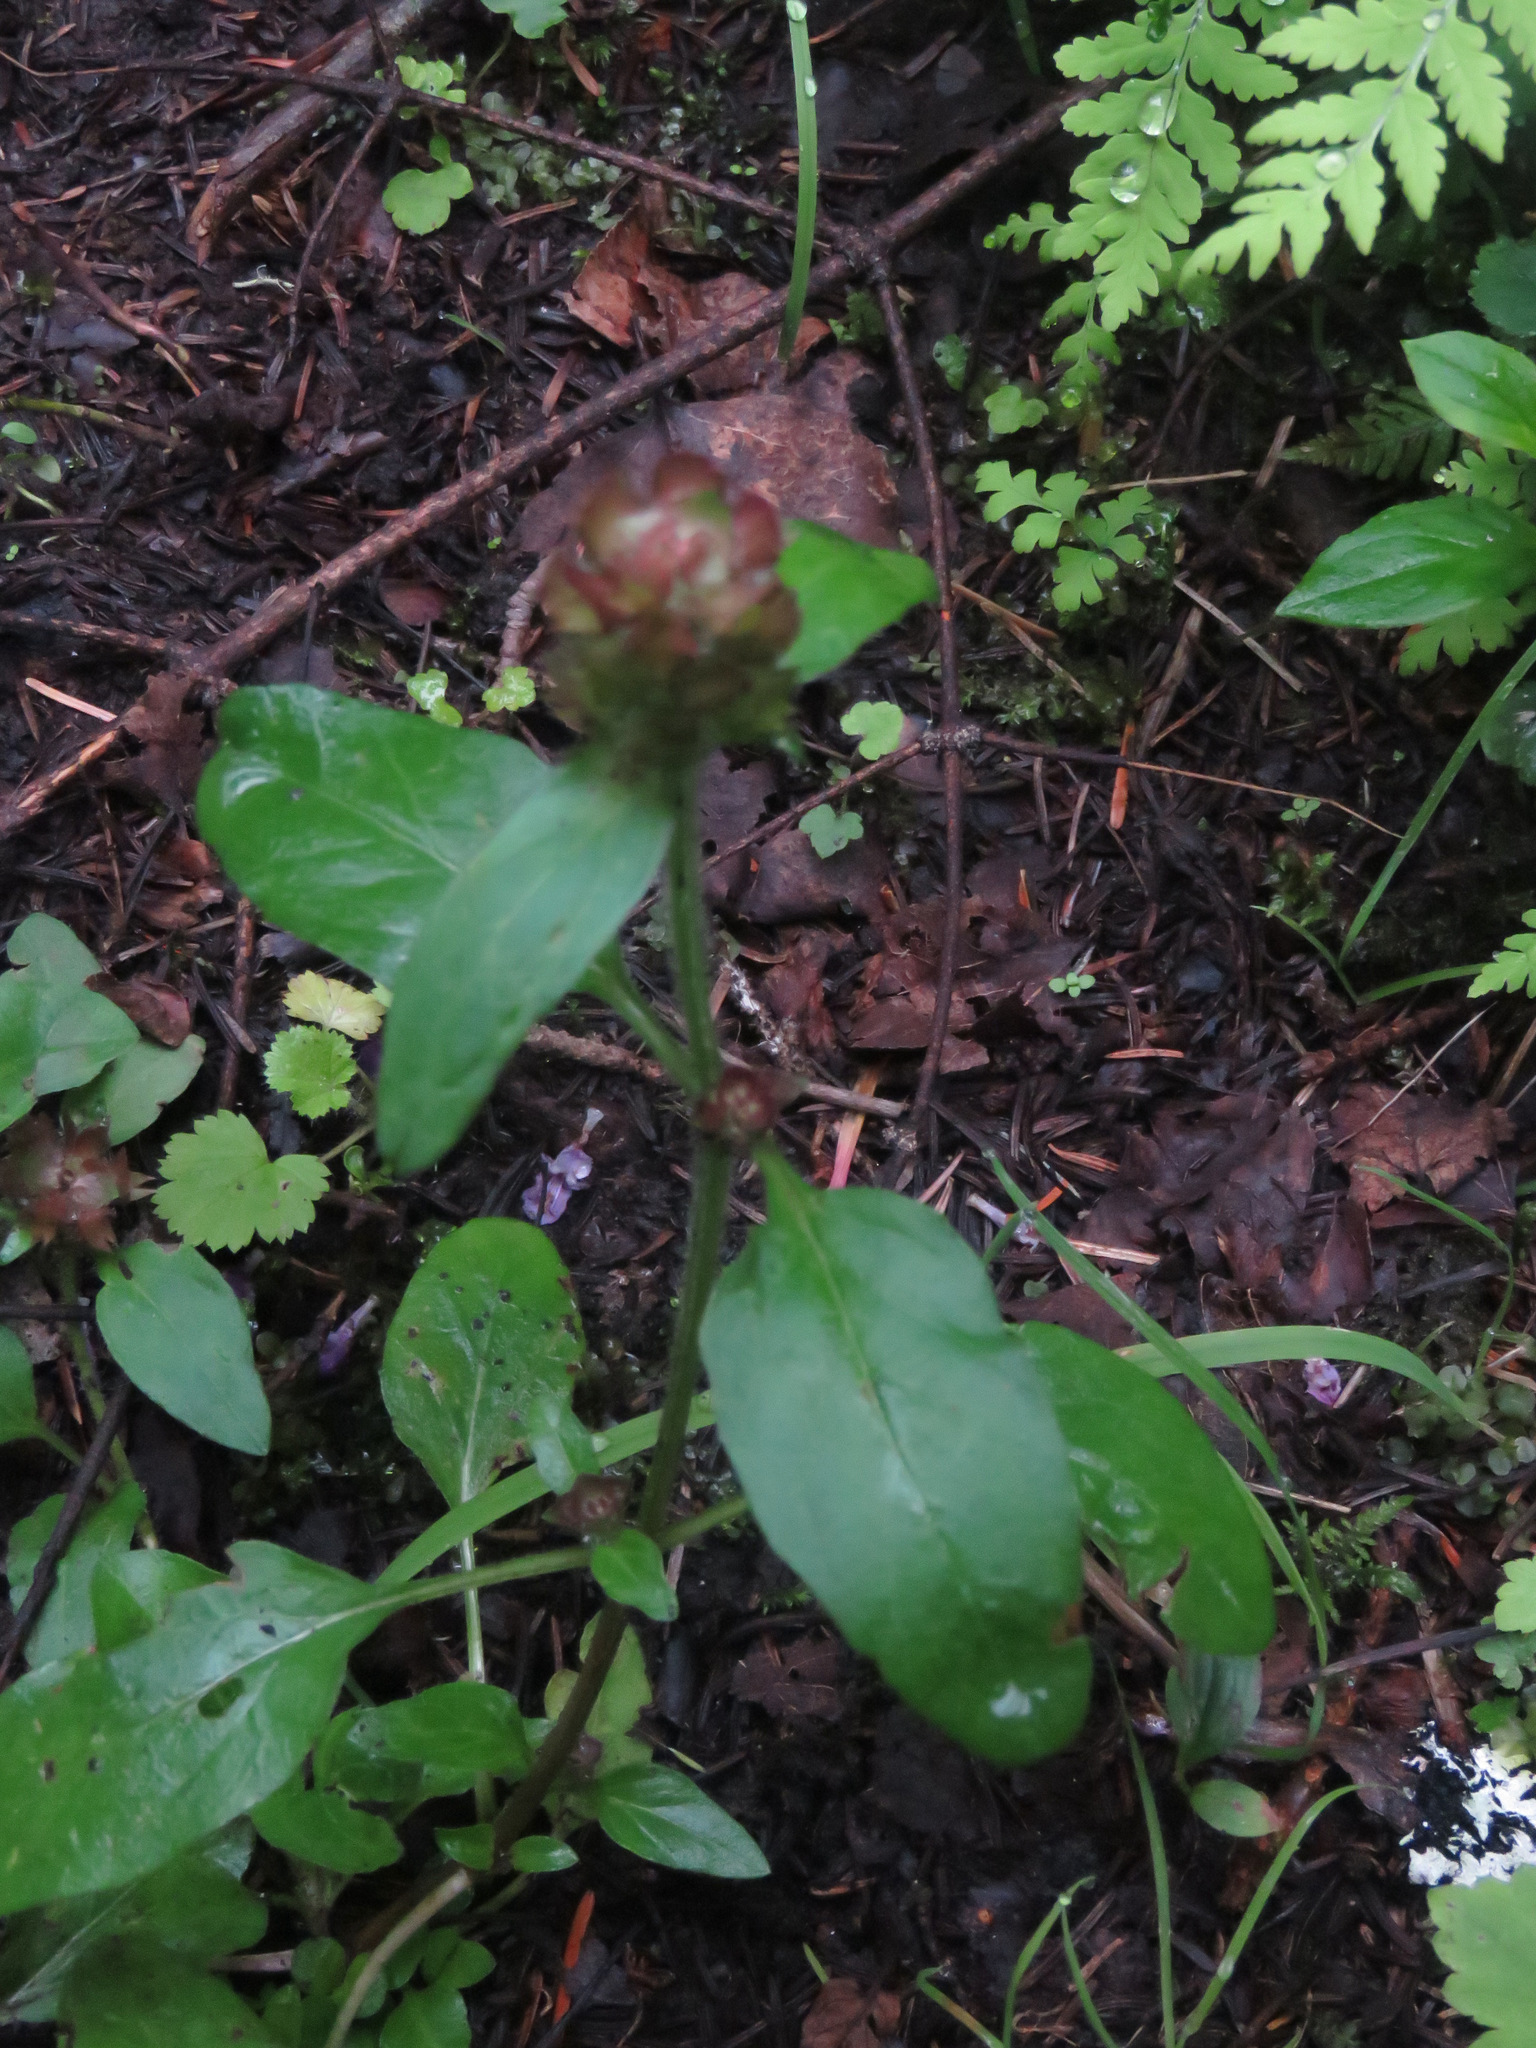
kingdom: Plantae
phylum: Tracheophyta
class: Magnoliopsida
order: Lamiales
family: Lamiaceae
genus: Prunella
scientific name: Prunella vulgaris
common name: Heal-all
